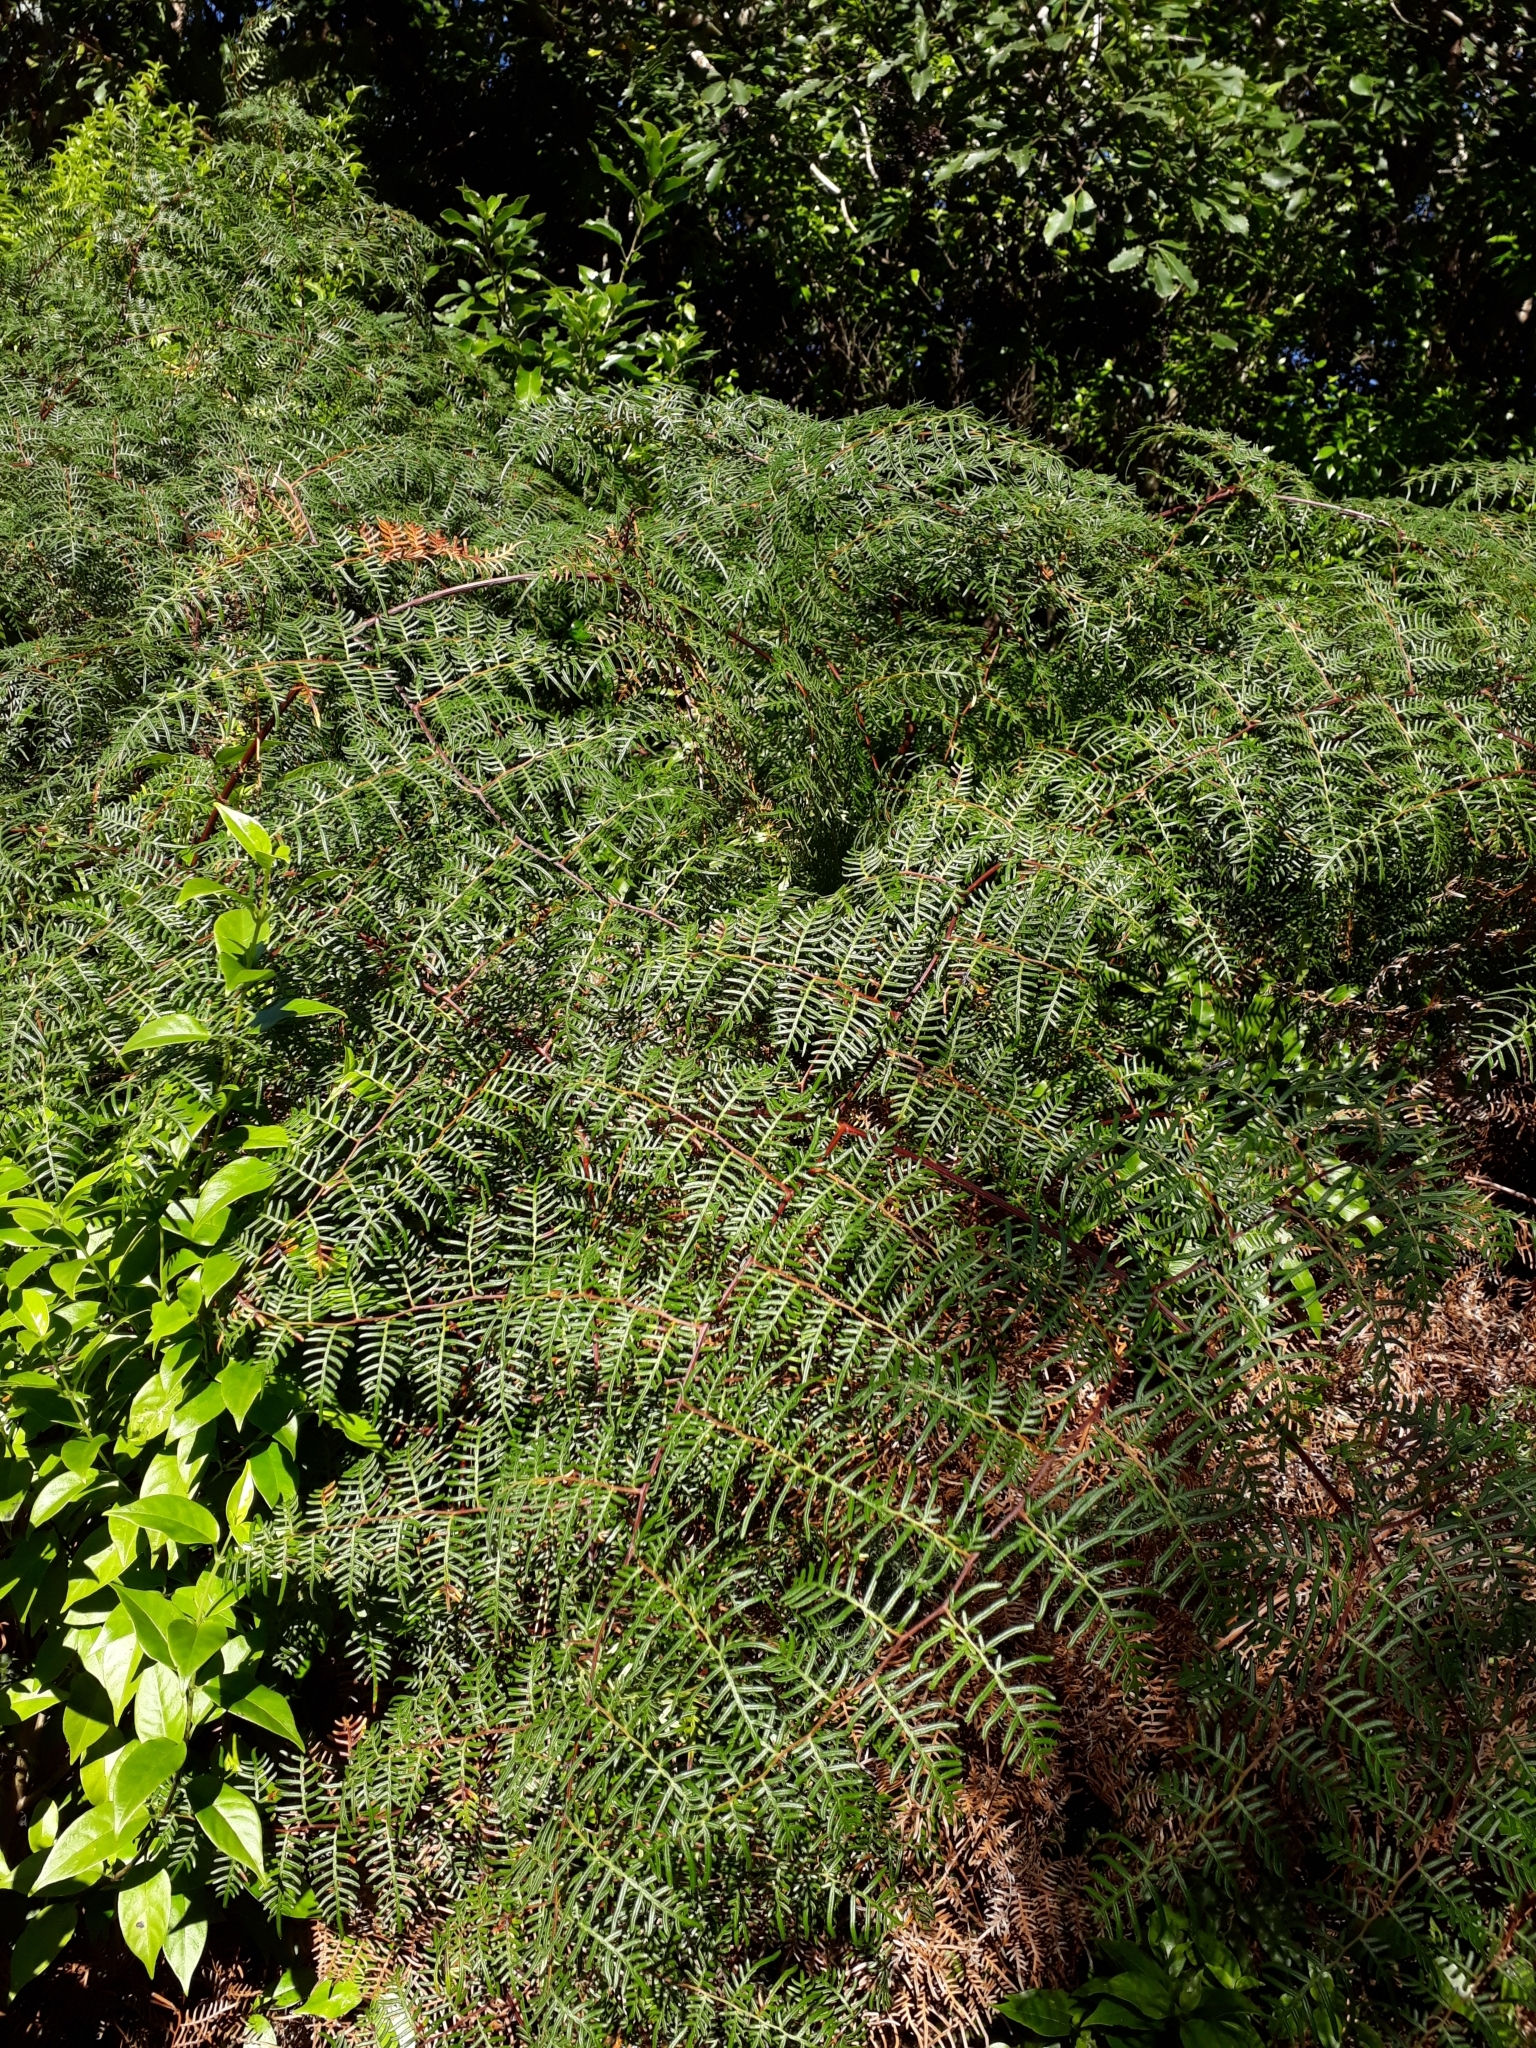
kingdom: Plantae
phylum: Tracheophyta
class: Polypodiopsida
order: Polypodiales
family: Dennstaedtiaceae
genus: Pteridium
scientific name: Pteridium esculentum
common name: Bracken fern
